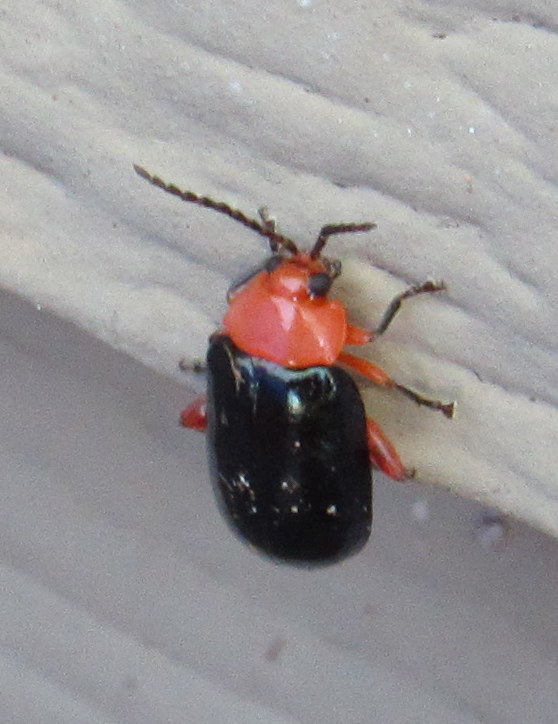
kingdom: Animalia
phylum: Arthropoda
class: Insecta
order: Coleoptera
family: Chrysomelidae
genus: Asphaera
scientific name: Asphaera lustrans
